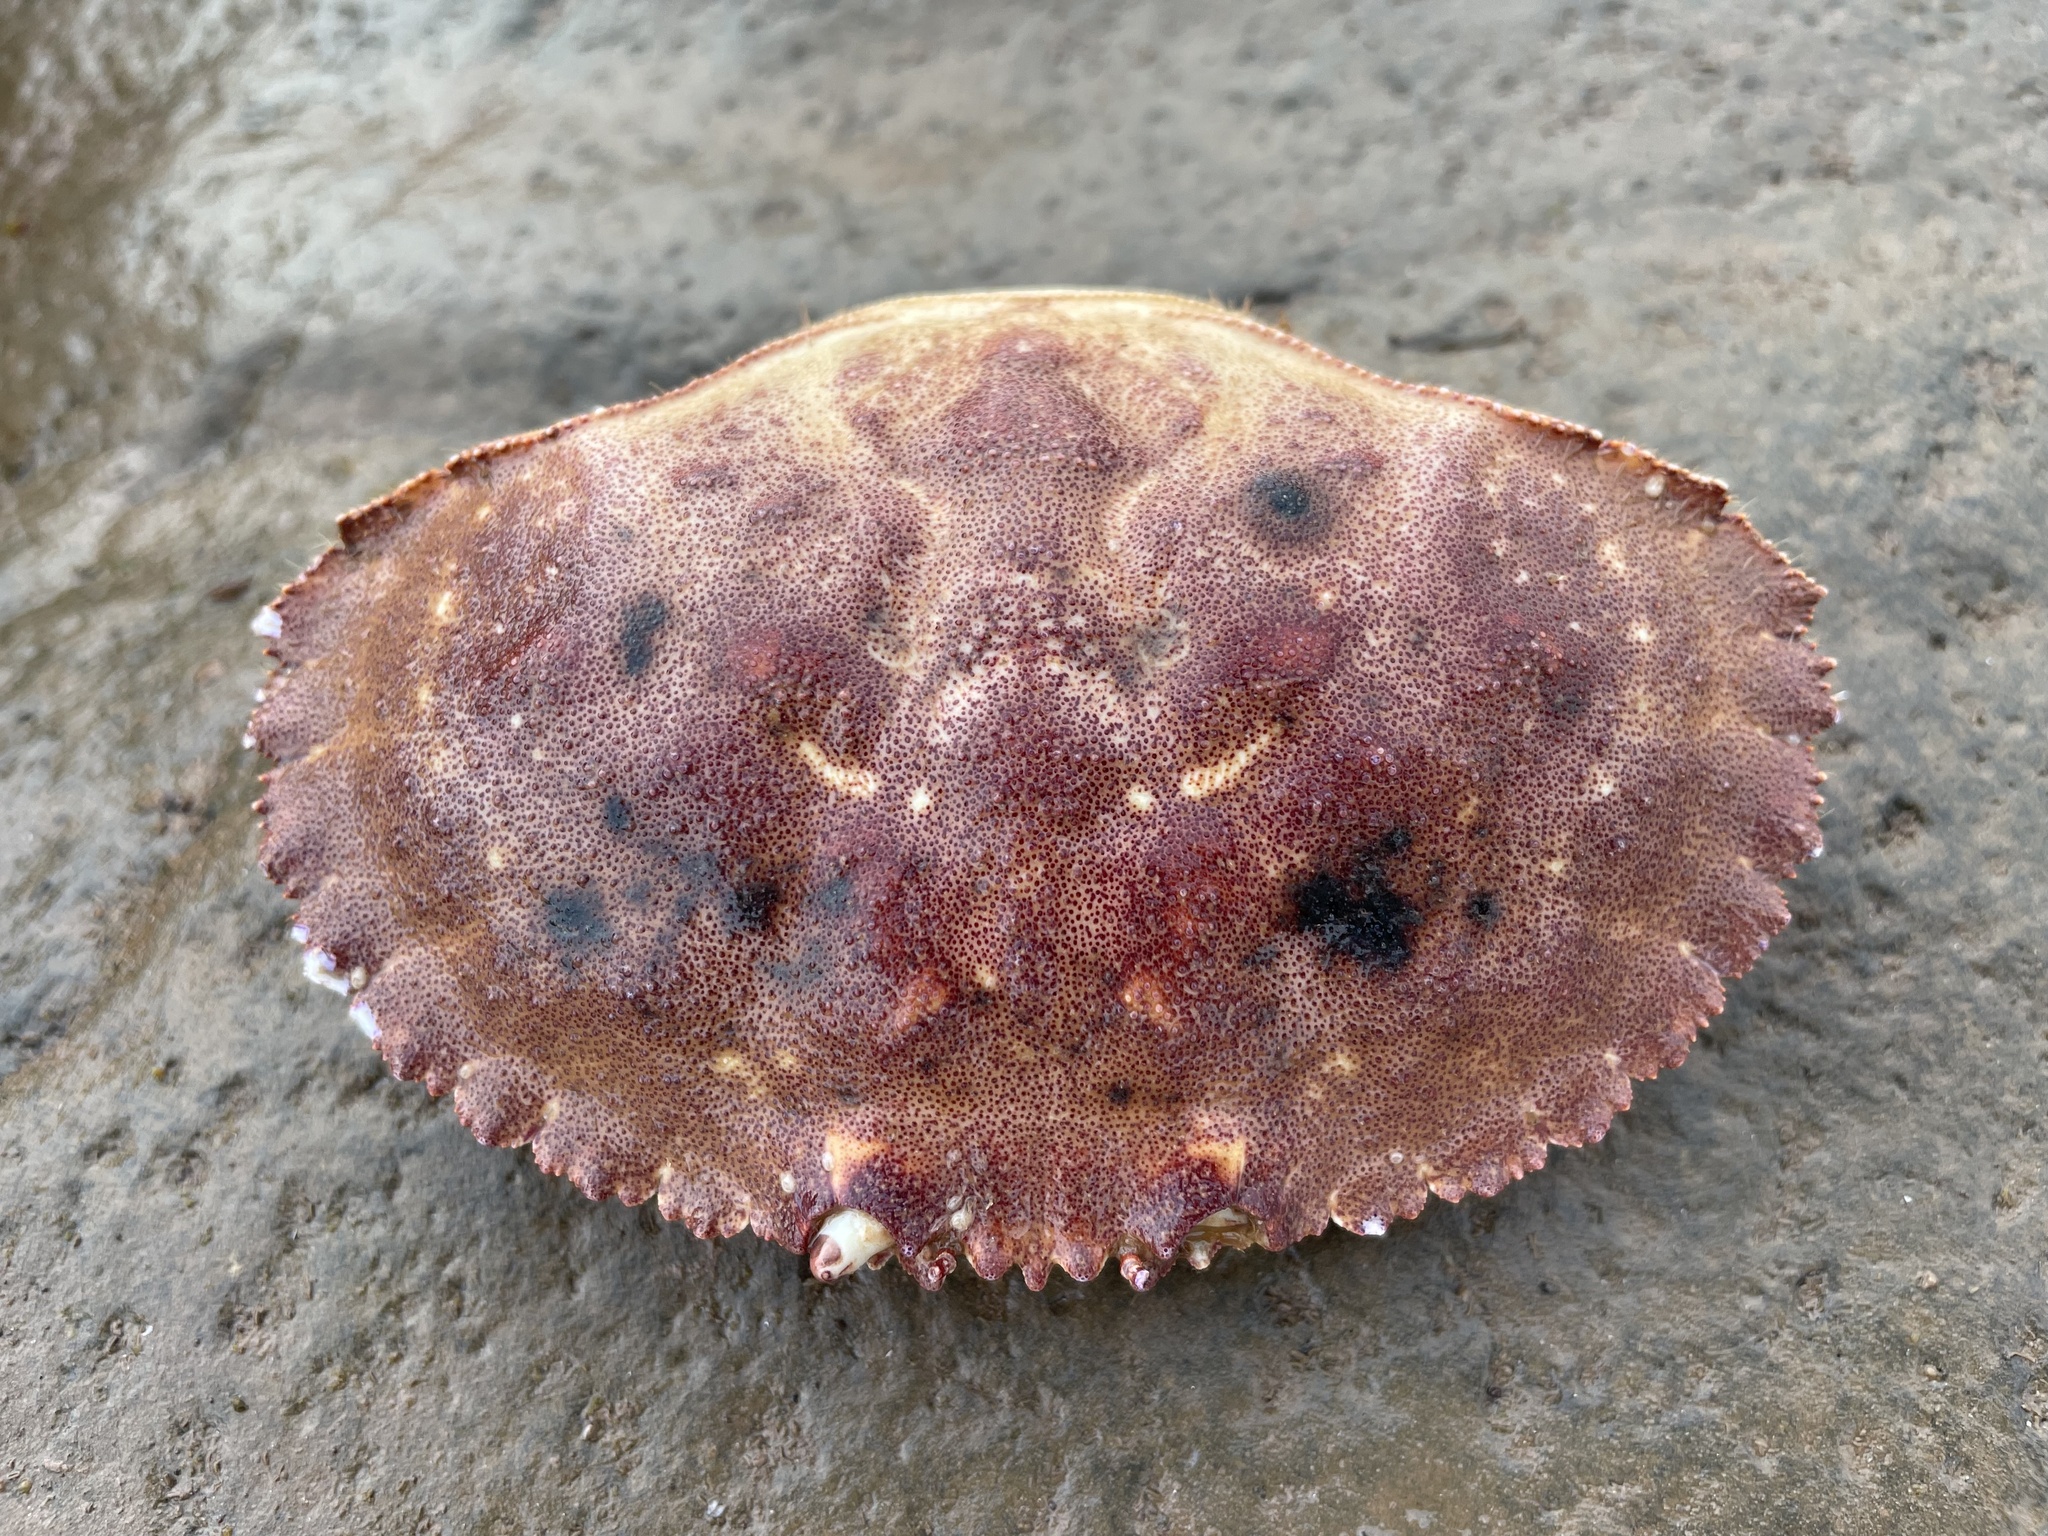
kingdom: Animalia
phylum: Arthropoda
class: Malacostraca
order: Decapoda
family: Cancridae
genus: Cancer
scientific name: Cancer borealis
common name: Jonah crab
